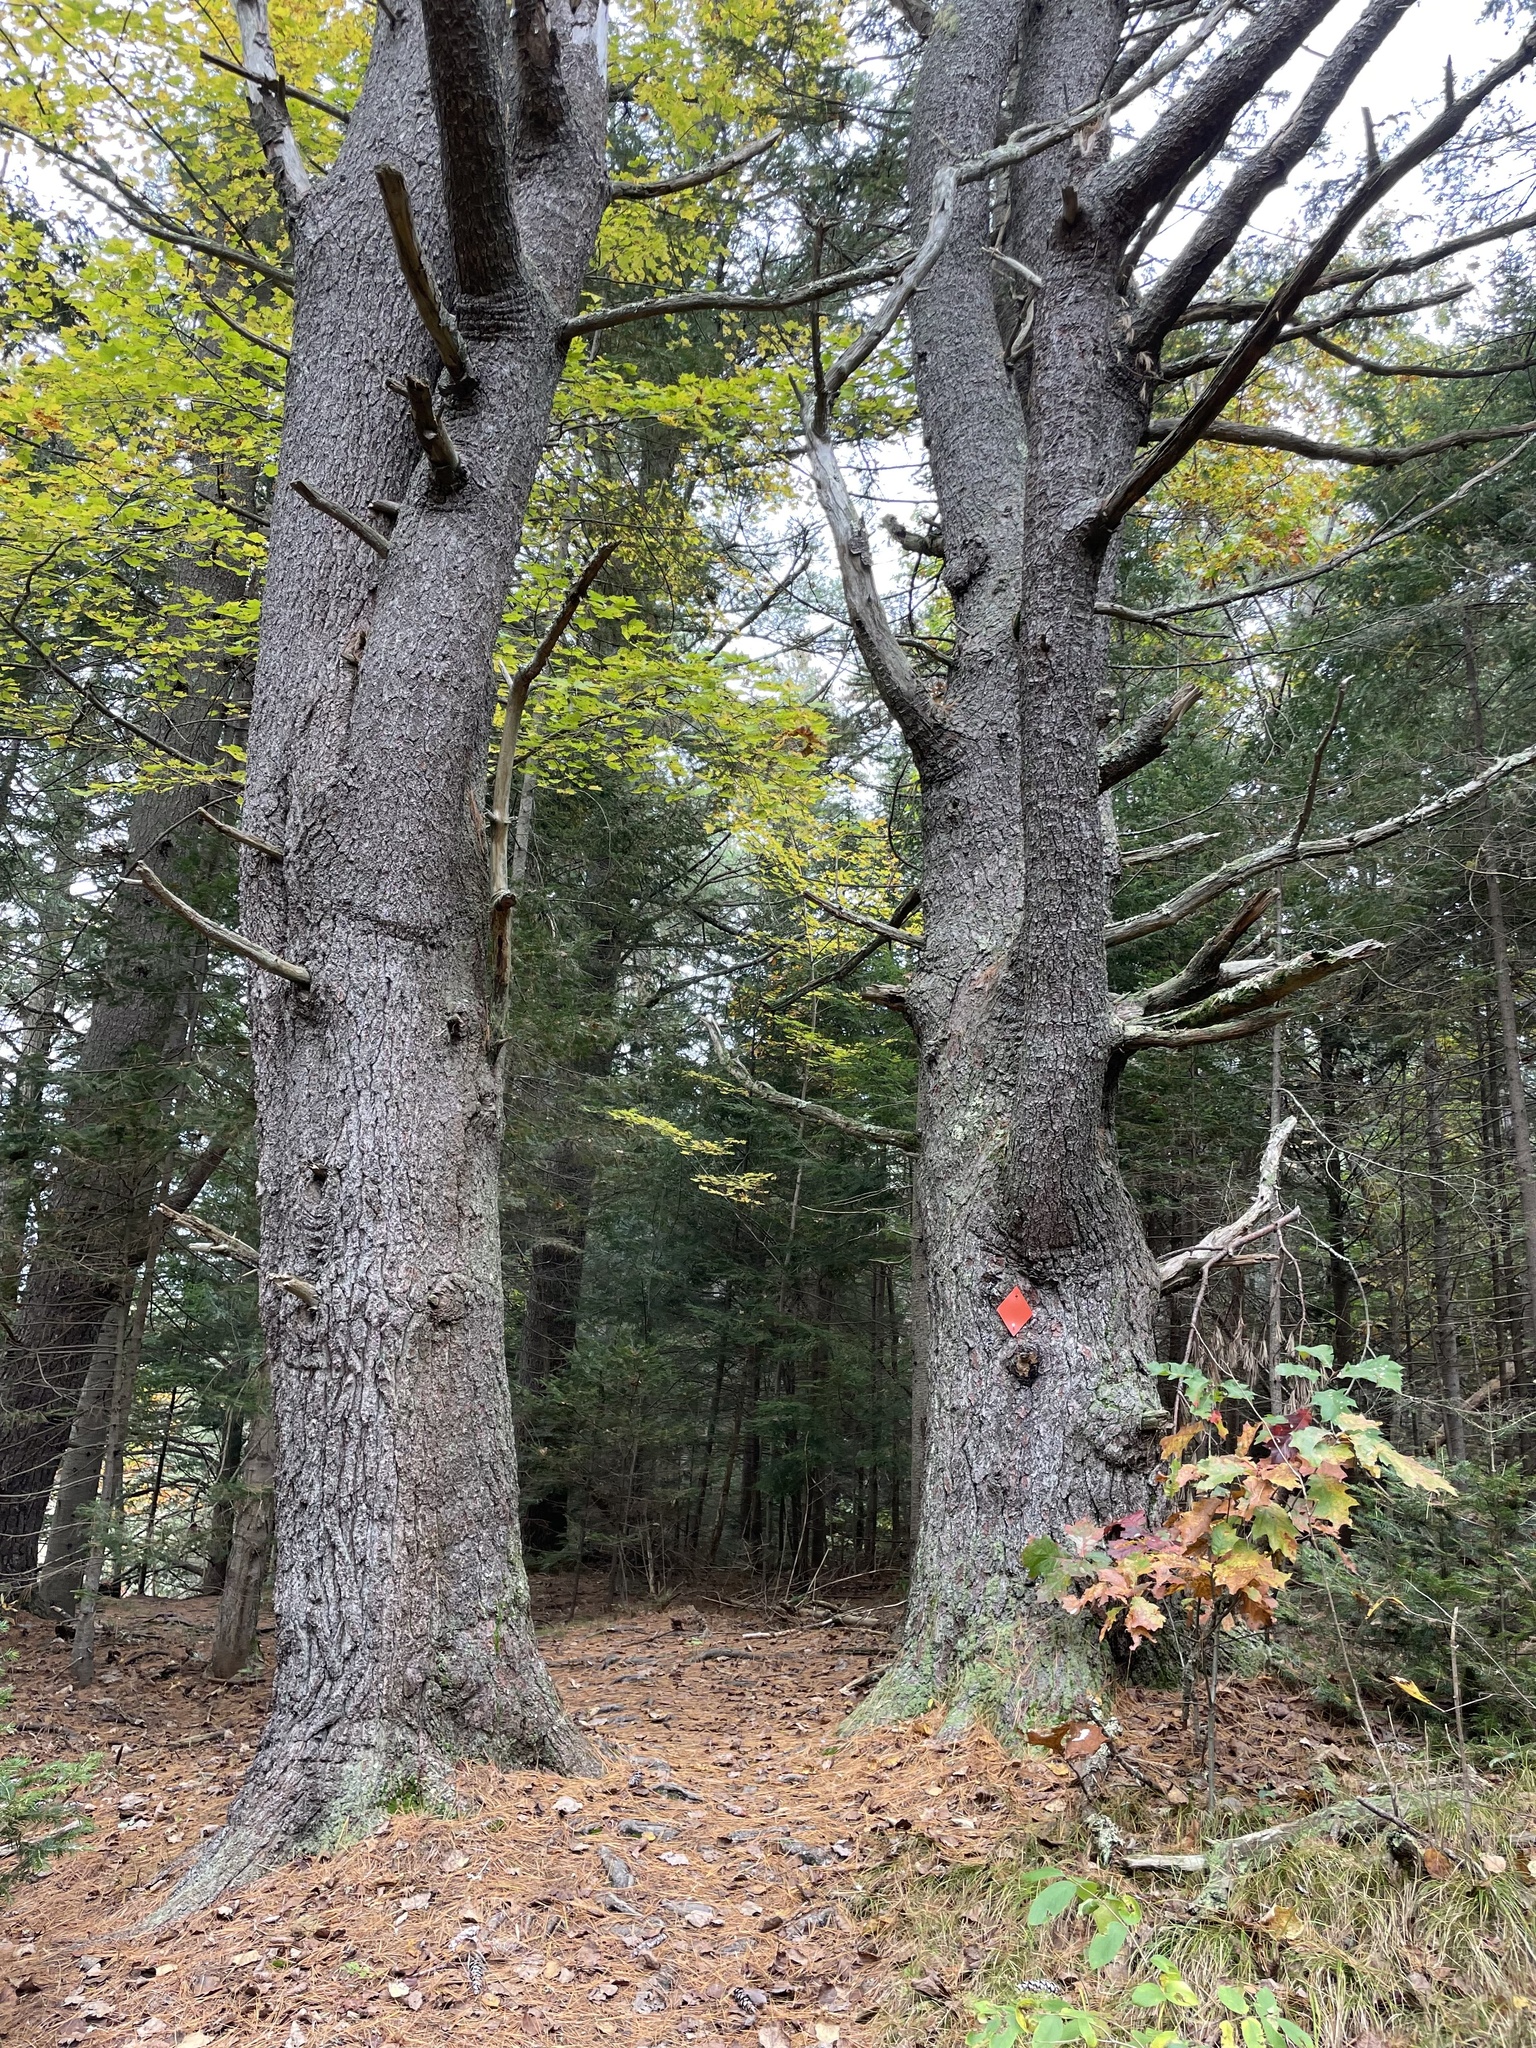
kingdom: Plantae
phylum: Tracheophyta
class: Pinopsida
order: Pinales
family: Pinaceae
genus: Pinus
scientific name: Pinus strobus
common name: Weymouth pine
